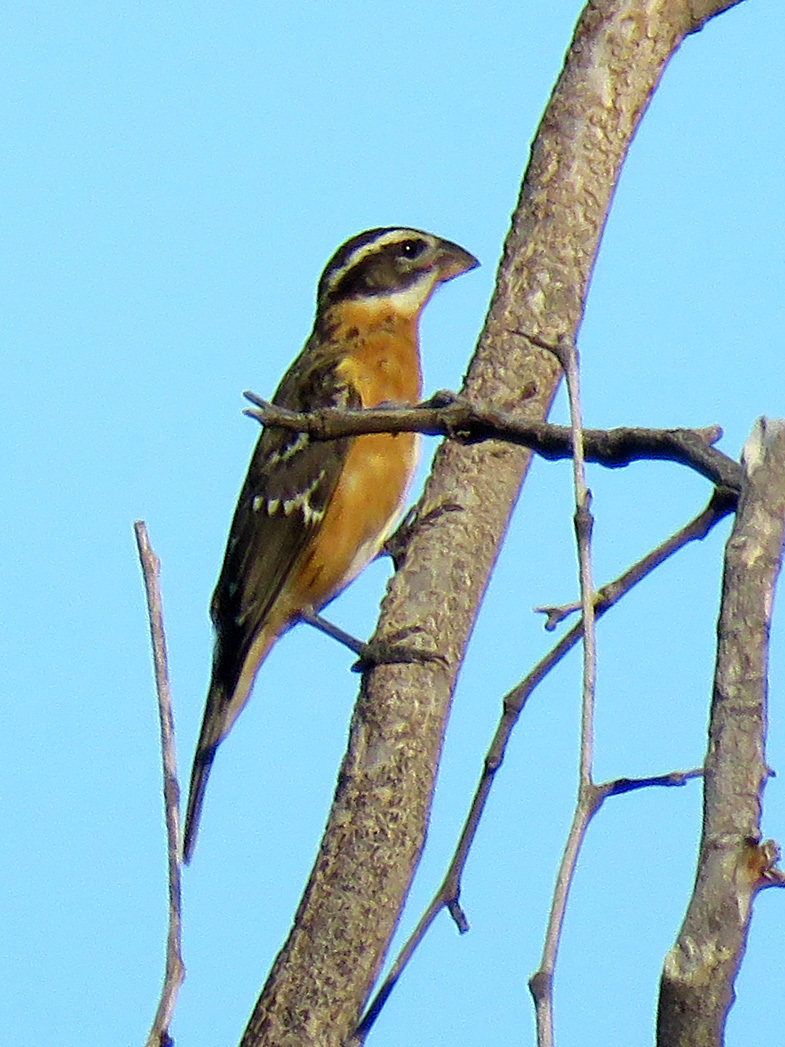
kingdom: Animalia
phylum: Chordata
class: Aves
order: Passeriformes
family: Cardinalidae
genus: Pheucticus
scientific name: Pheucticus melanocephalus
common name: Black-headed grosbeak
